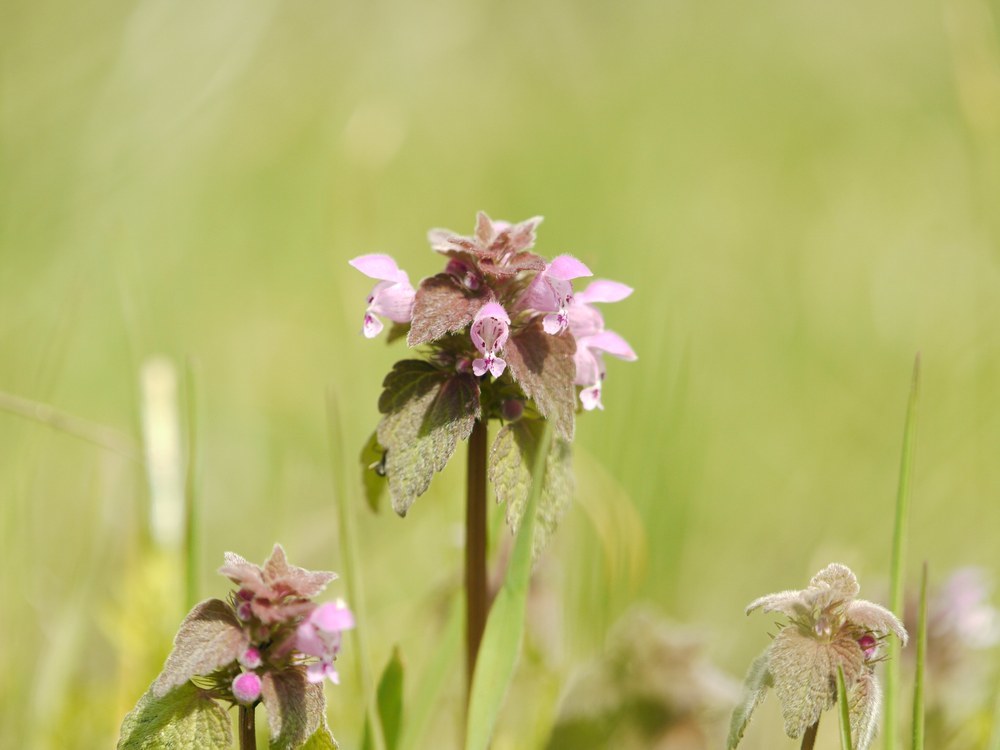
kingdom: Plantae
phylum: Tracheophyta
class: Magnoliopsida
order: Lamiales
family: Lamiaceae
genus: Lamium
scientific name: Lamium purpureum
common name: Red dead-nettle
